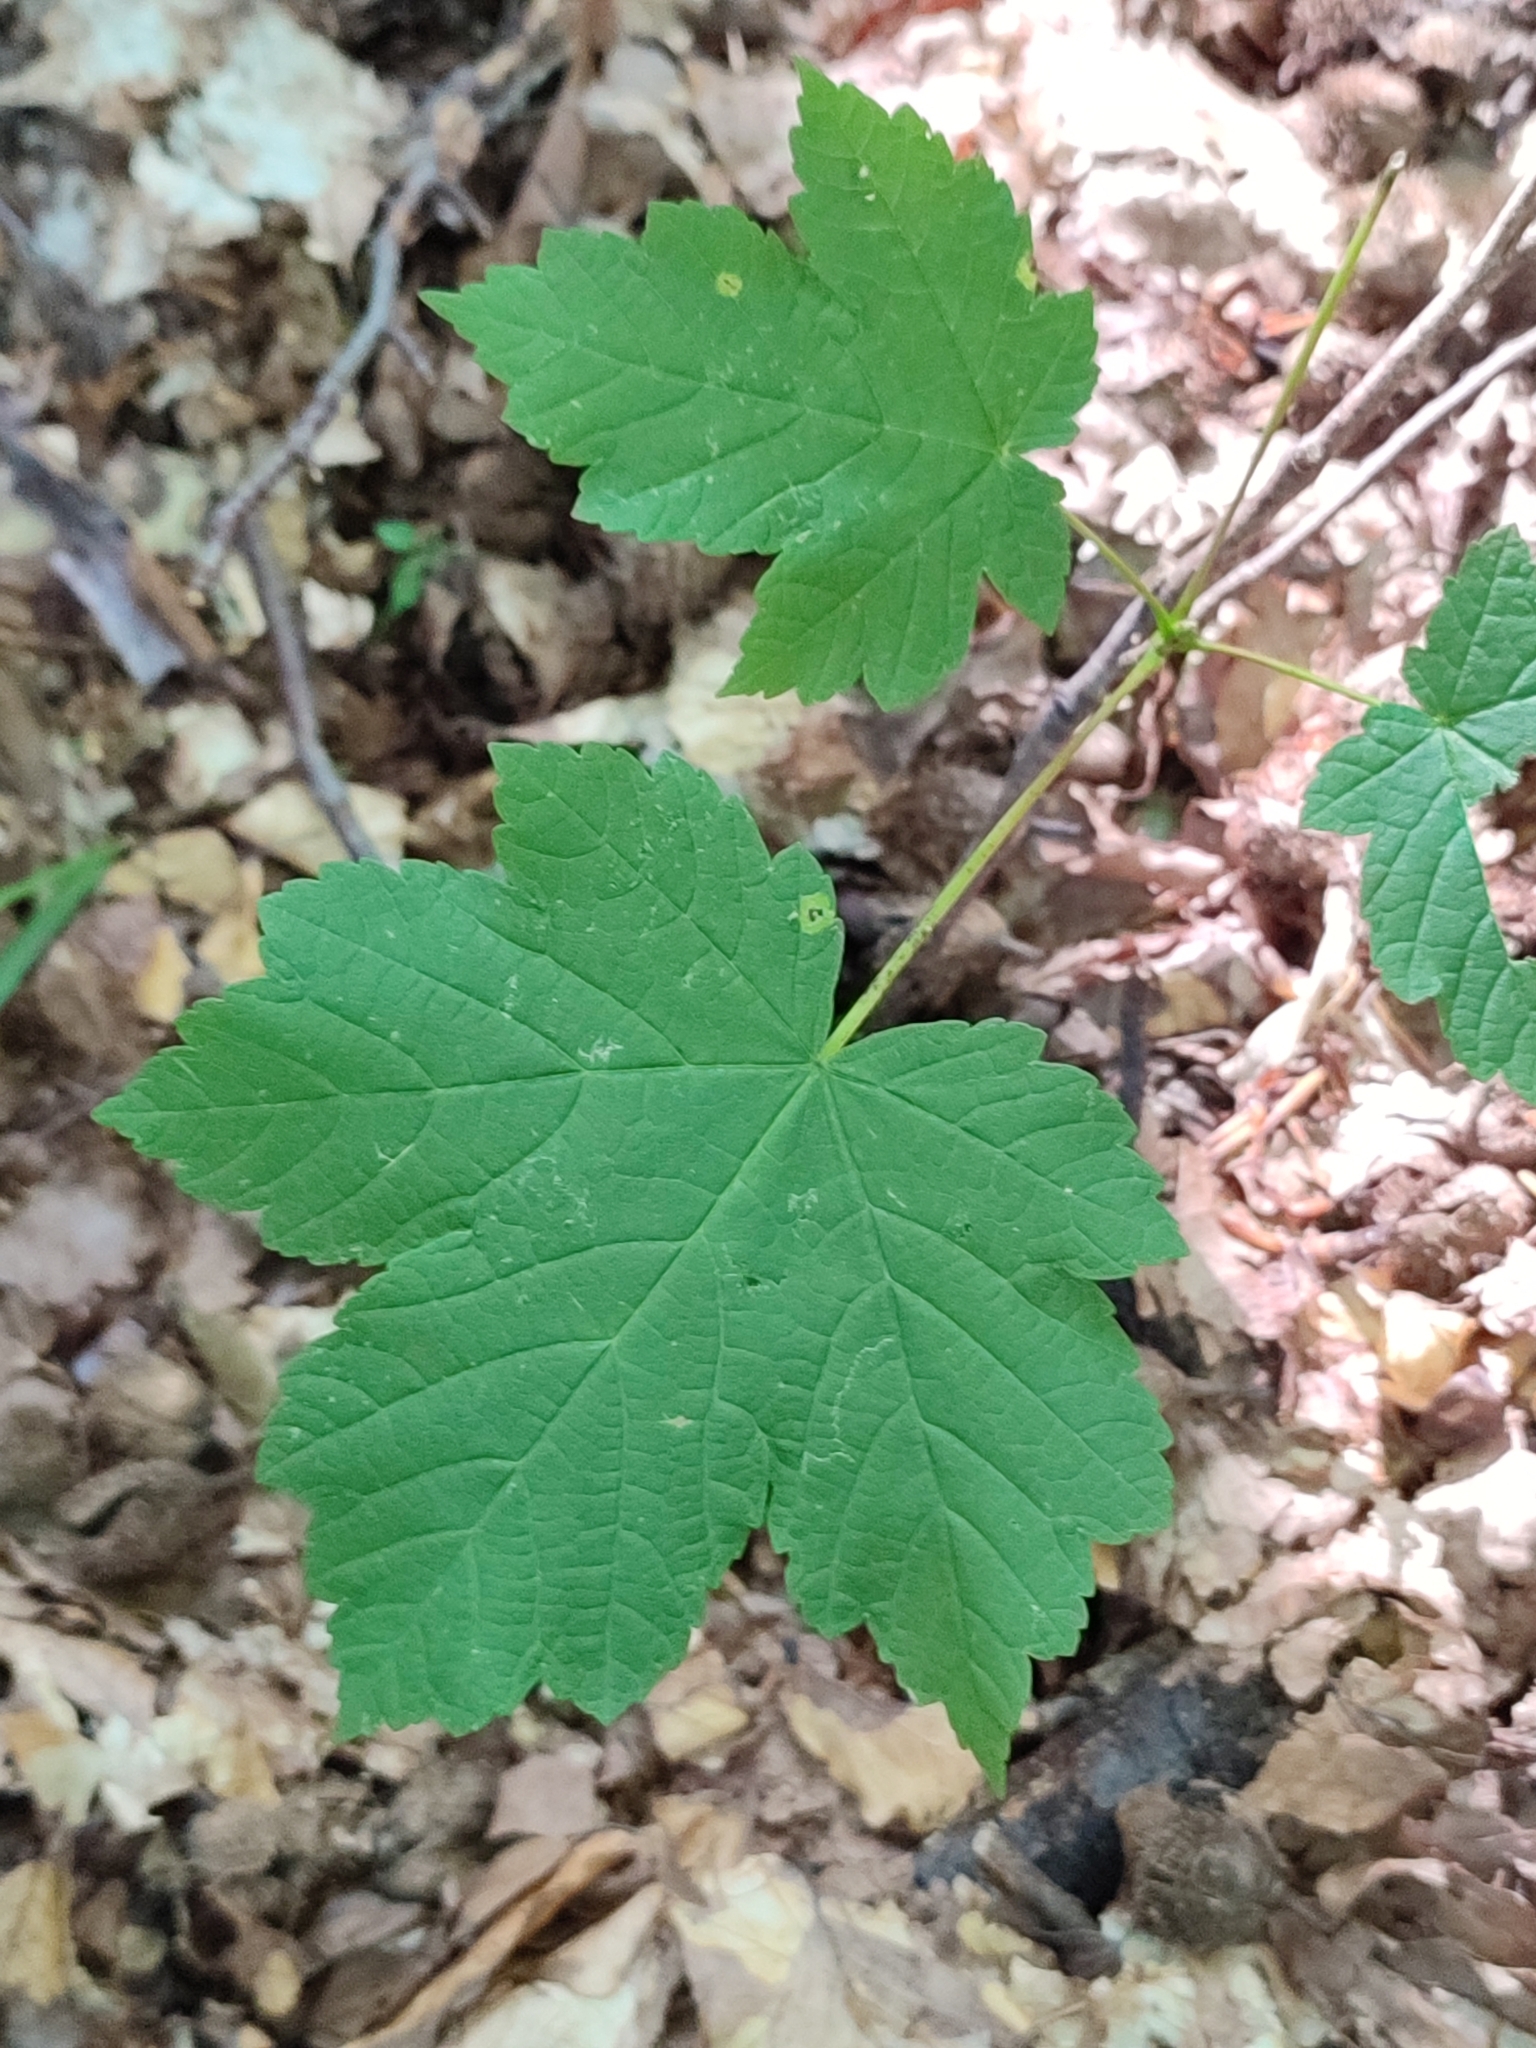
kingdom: Plantae
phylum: Tracheophyta
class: Magnoliopsida
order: Sapindales
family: Sapindaceae
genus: Acer
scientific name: Acer pseudoplatanus
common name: Sycamore
